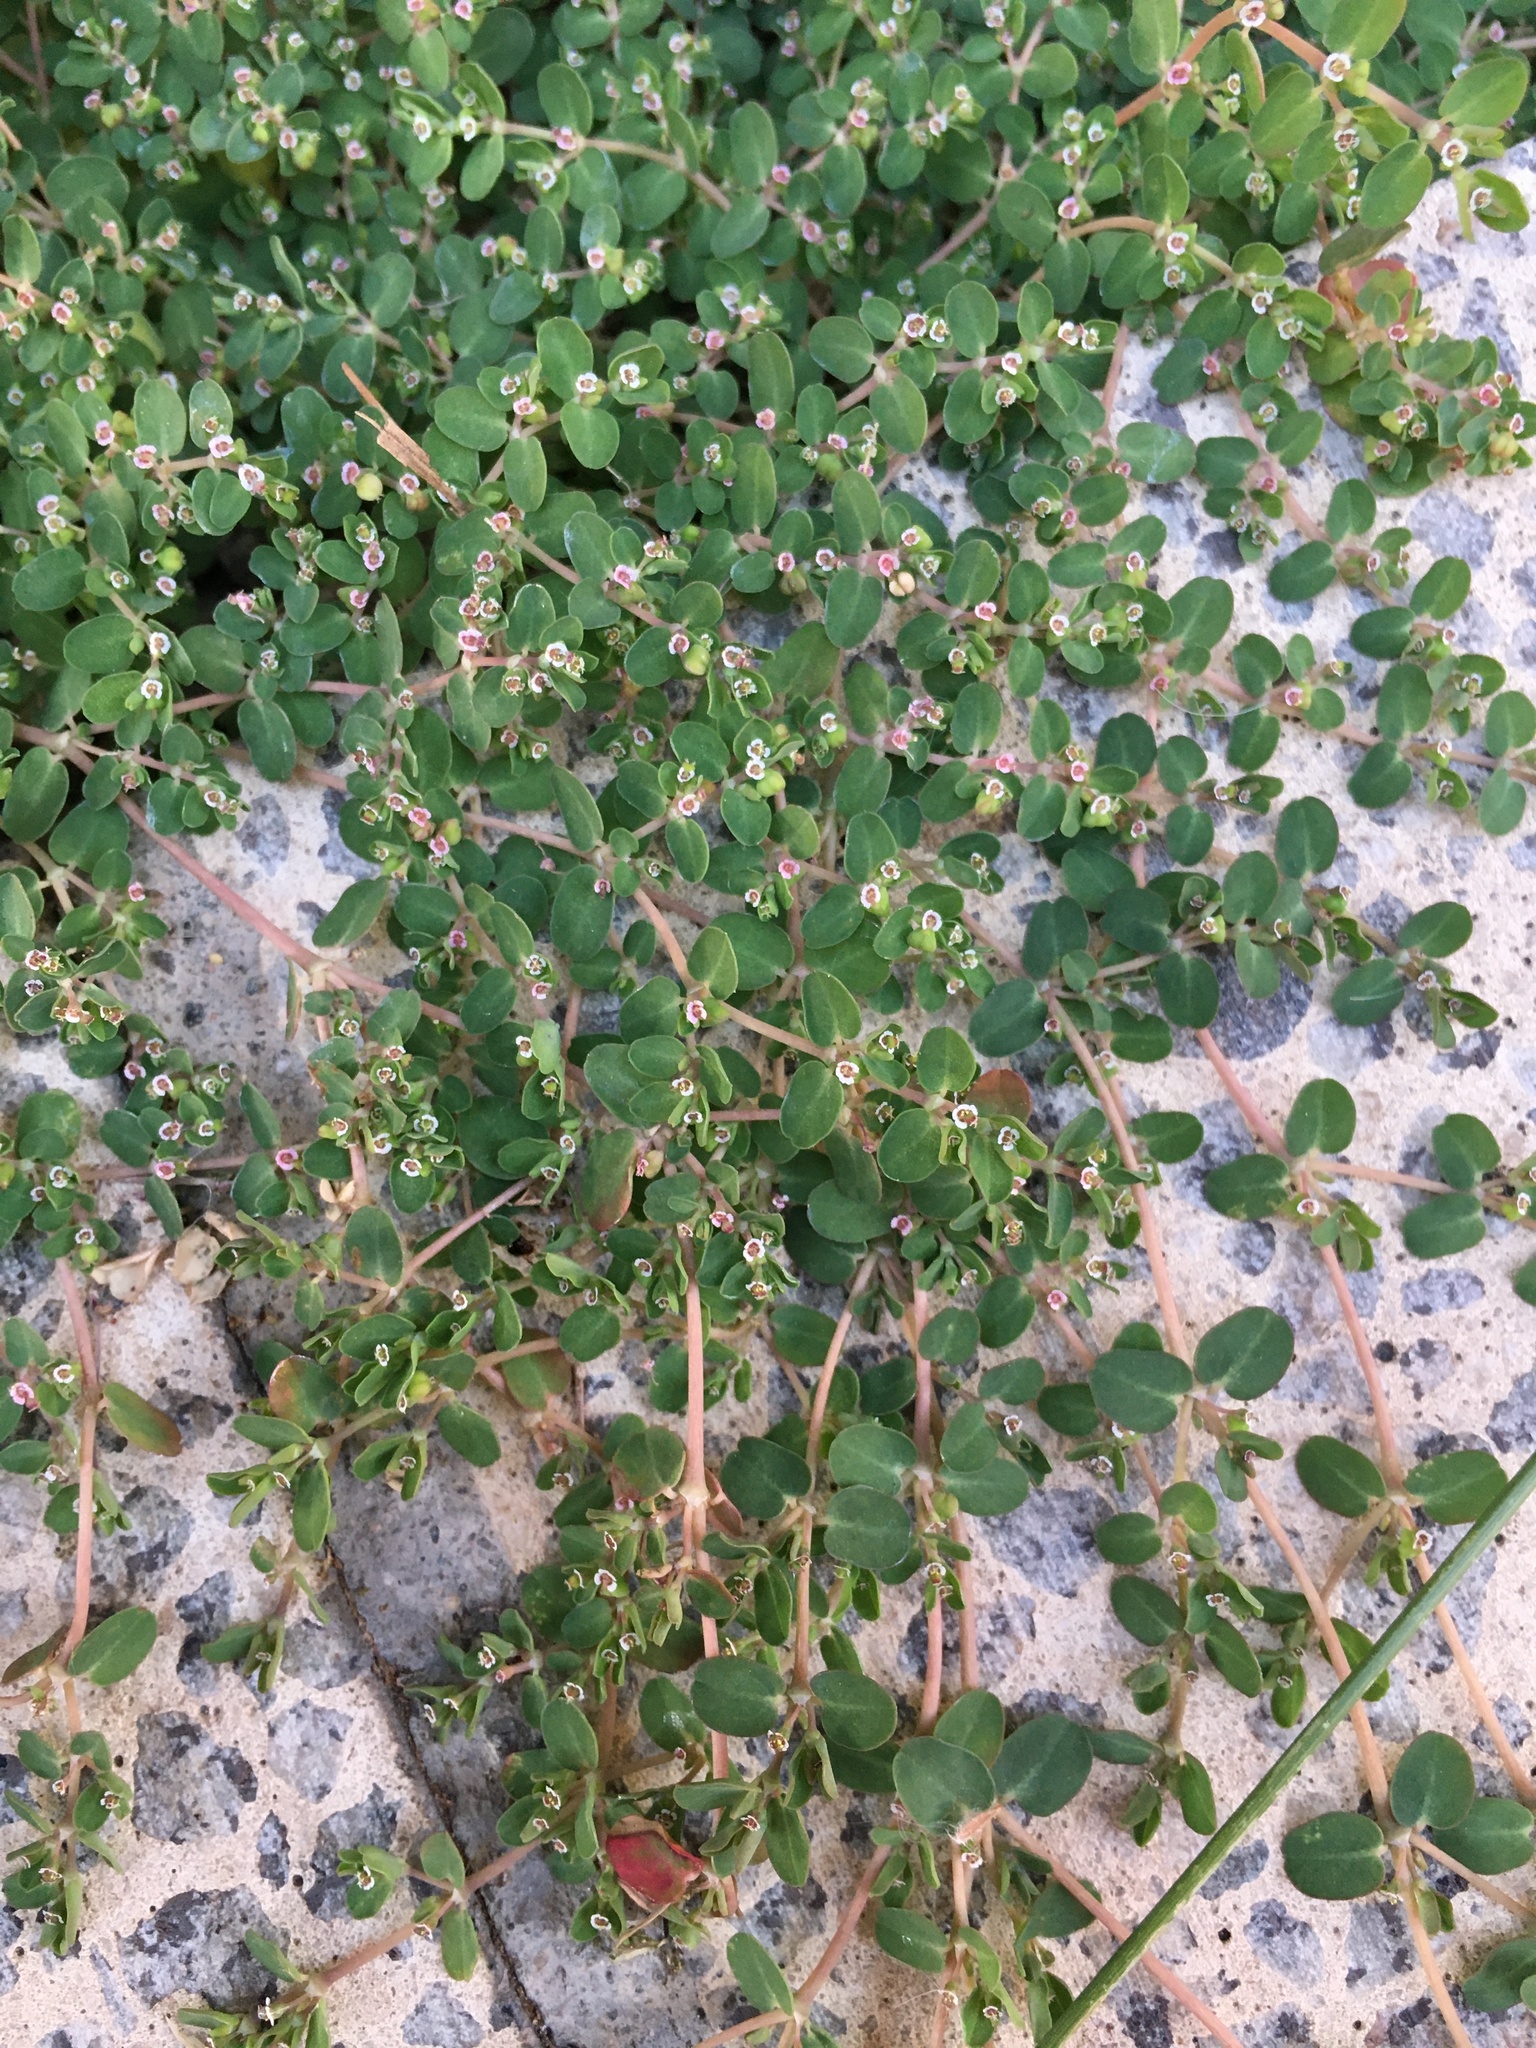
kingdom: Plantae
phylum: Tracheophyta
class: Magnoliopsida
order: Malpighiales
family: Euphorbiaceae
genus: Euphorbia
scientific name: Euphorbia serpens
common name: Matted sandmat
